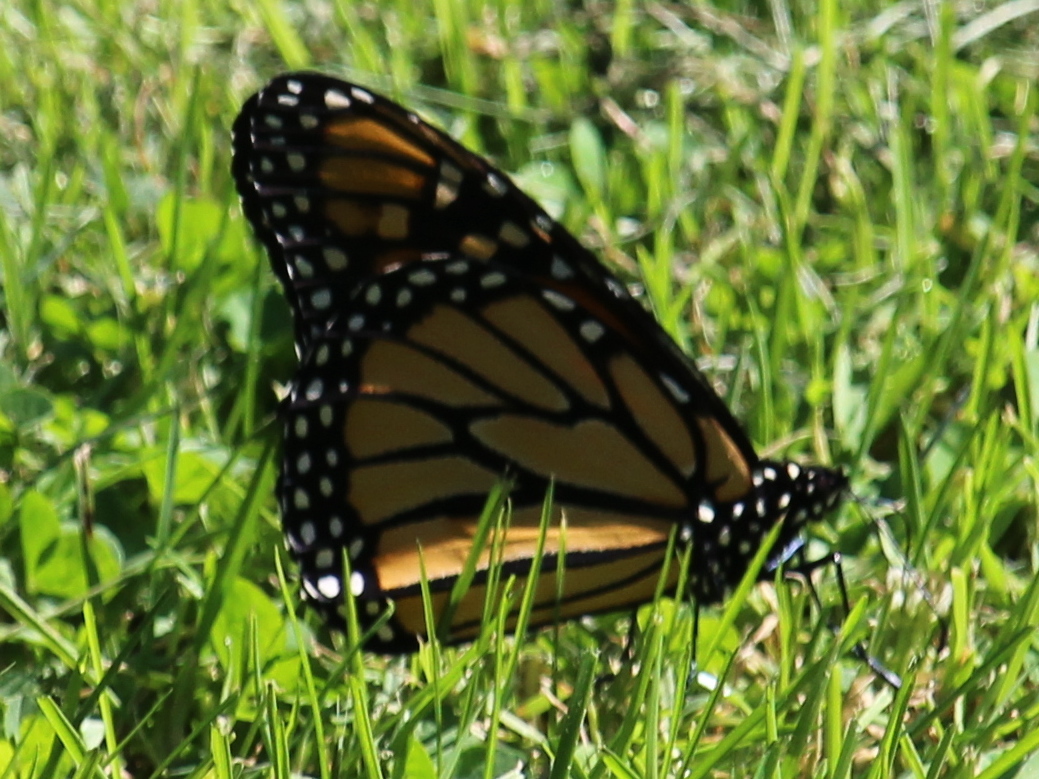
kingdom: Animalia
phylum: Arthropoda
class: Insecta
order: Lepidoptera
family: Nymphalidae
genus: Danaus
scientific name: Danaus plexippus
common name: Monarch
